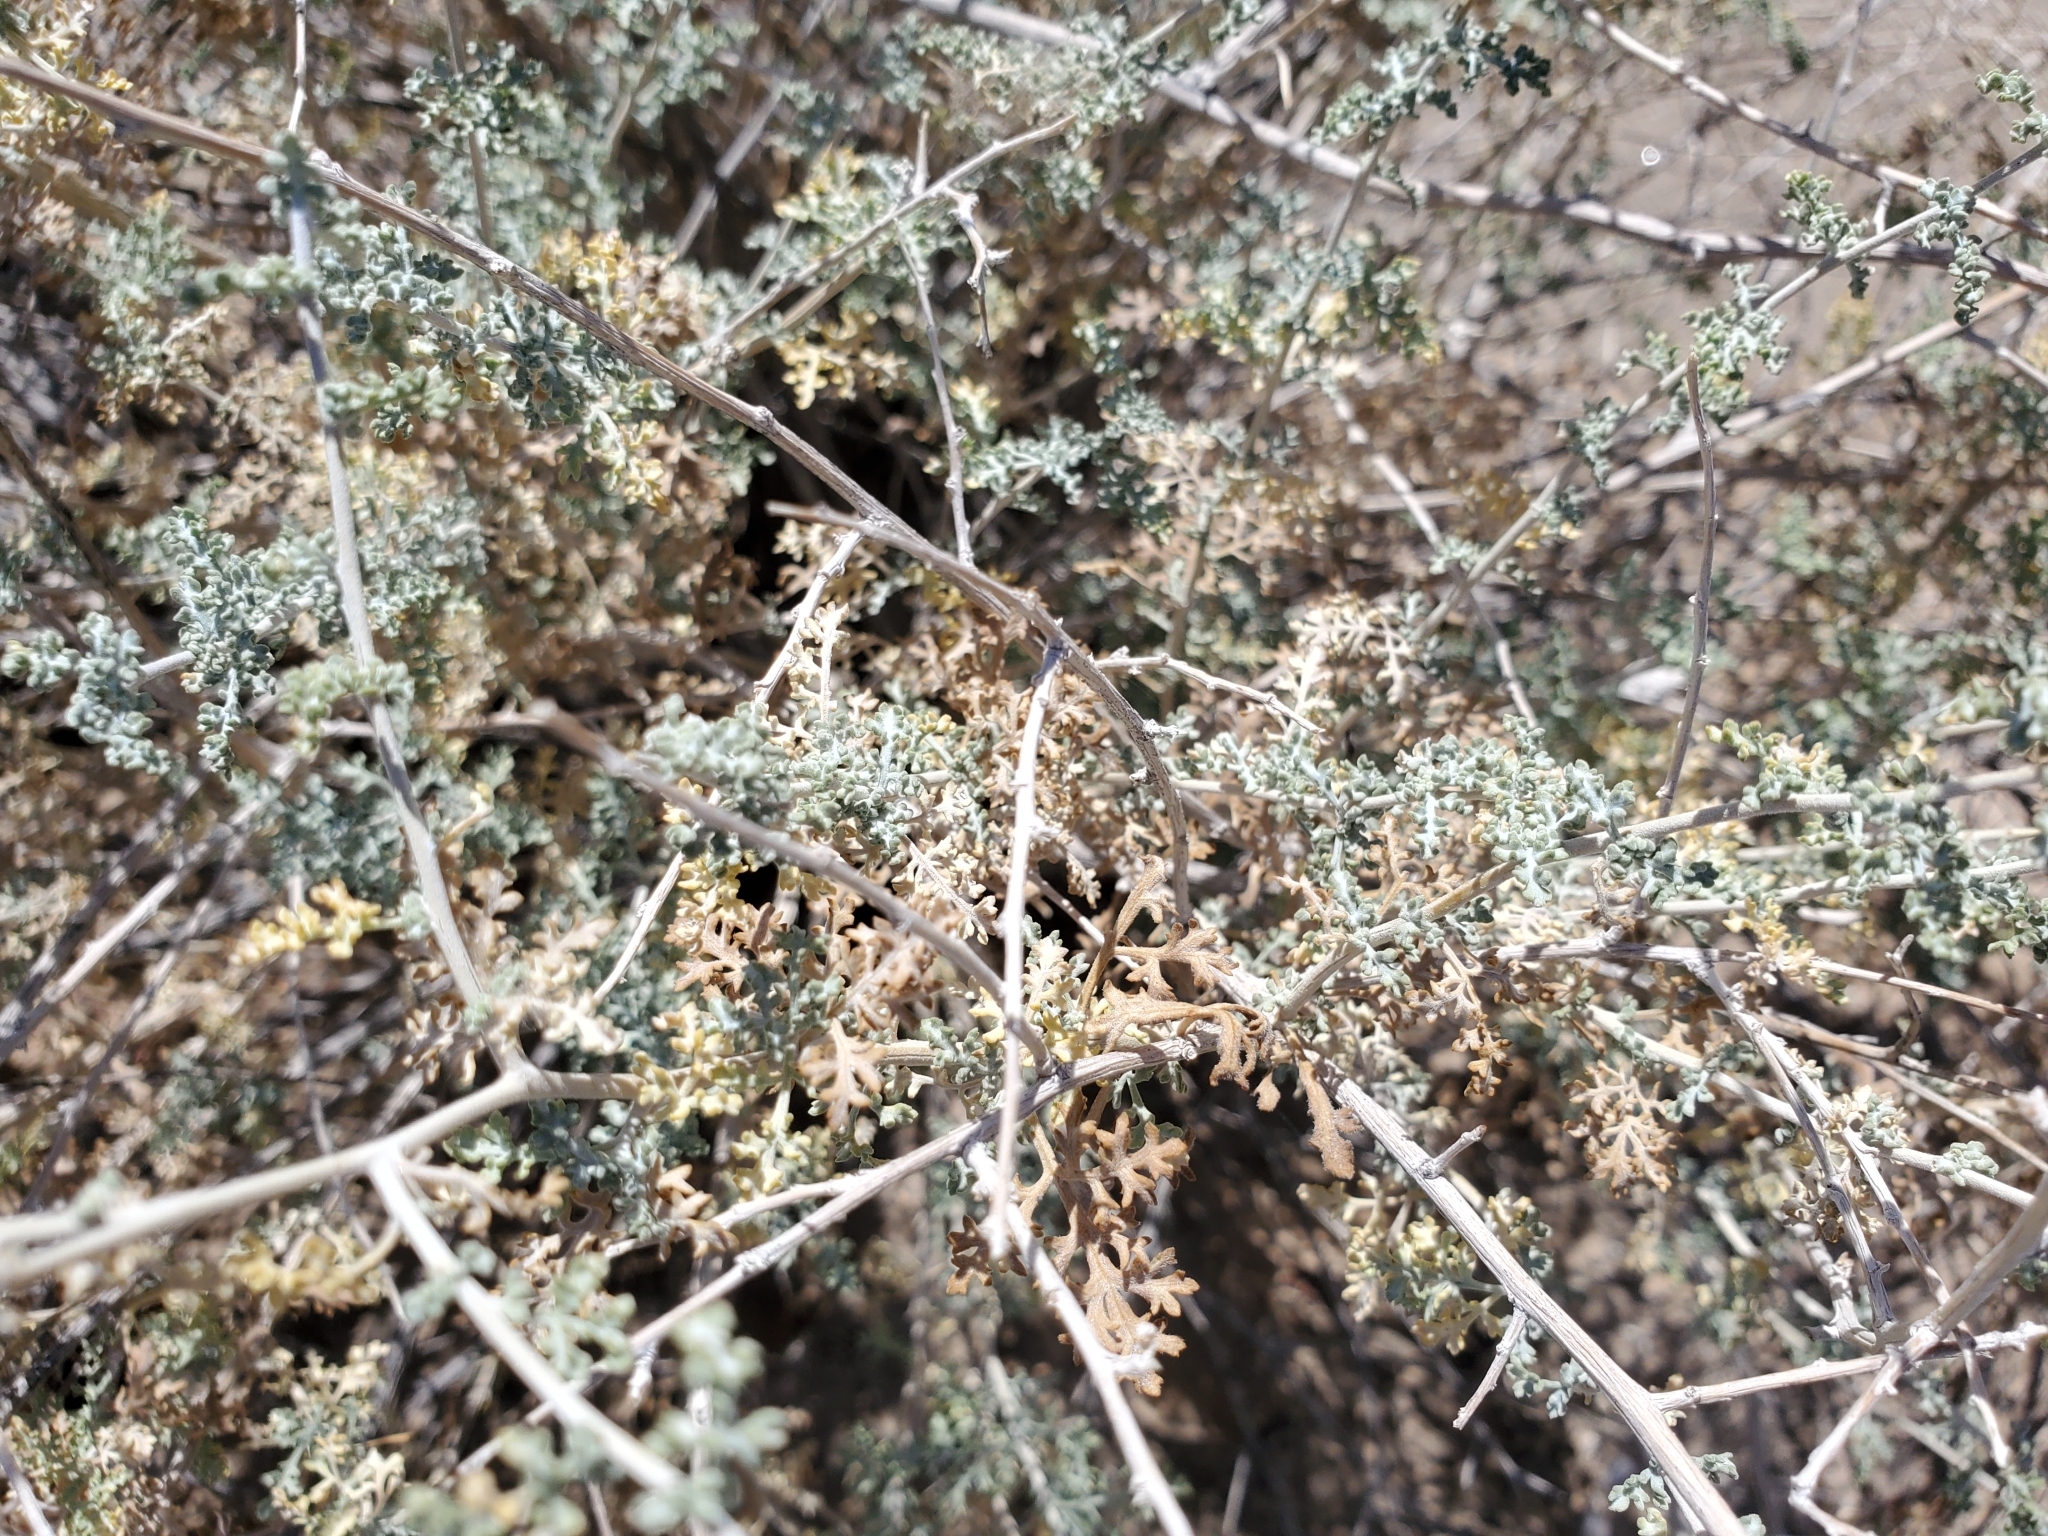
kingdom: Plantae
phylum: Tracheophyta
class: Magnoliopsida
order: Asterales
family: Asteraceae
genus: Ambrosia
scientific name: Ambrosia dumosa
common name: Bur-sage
